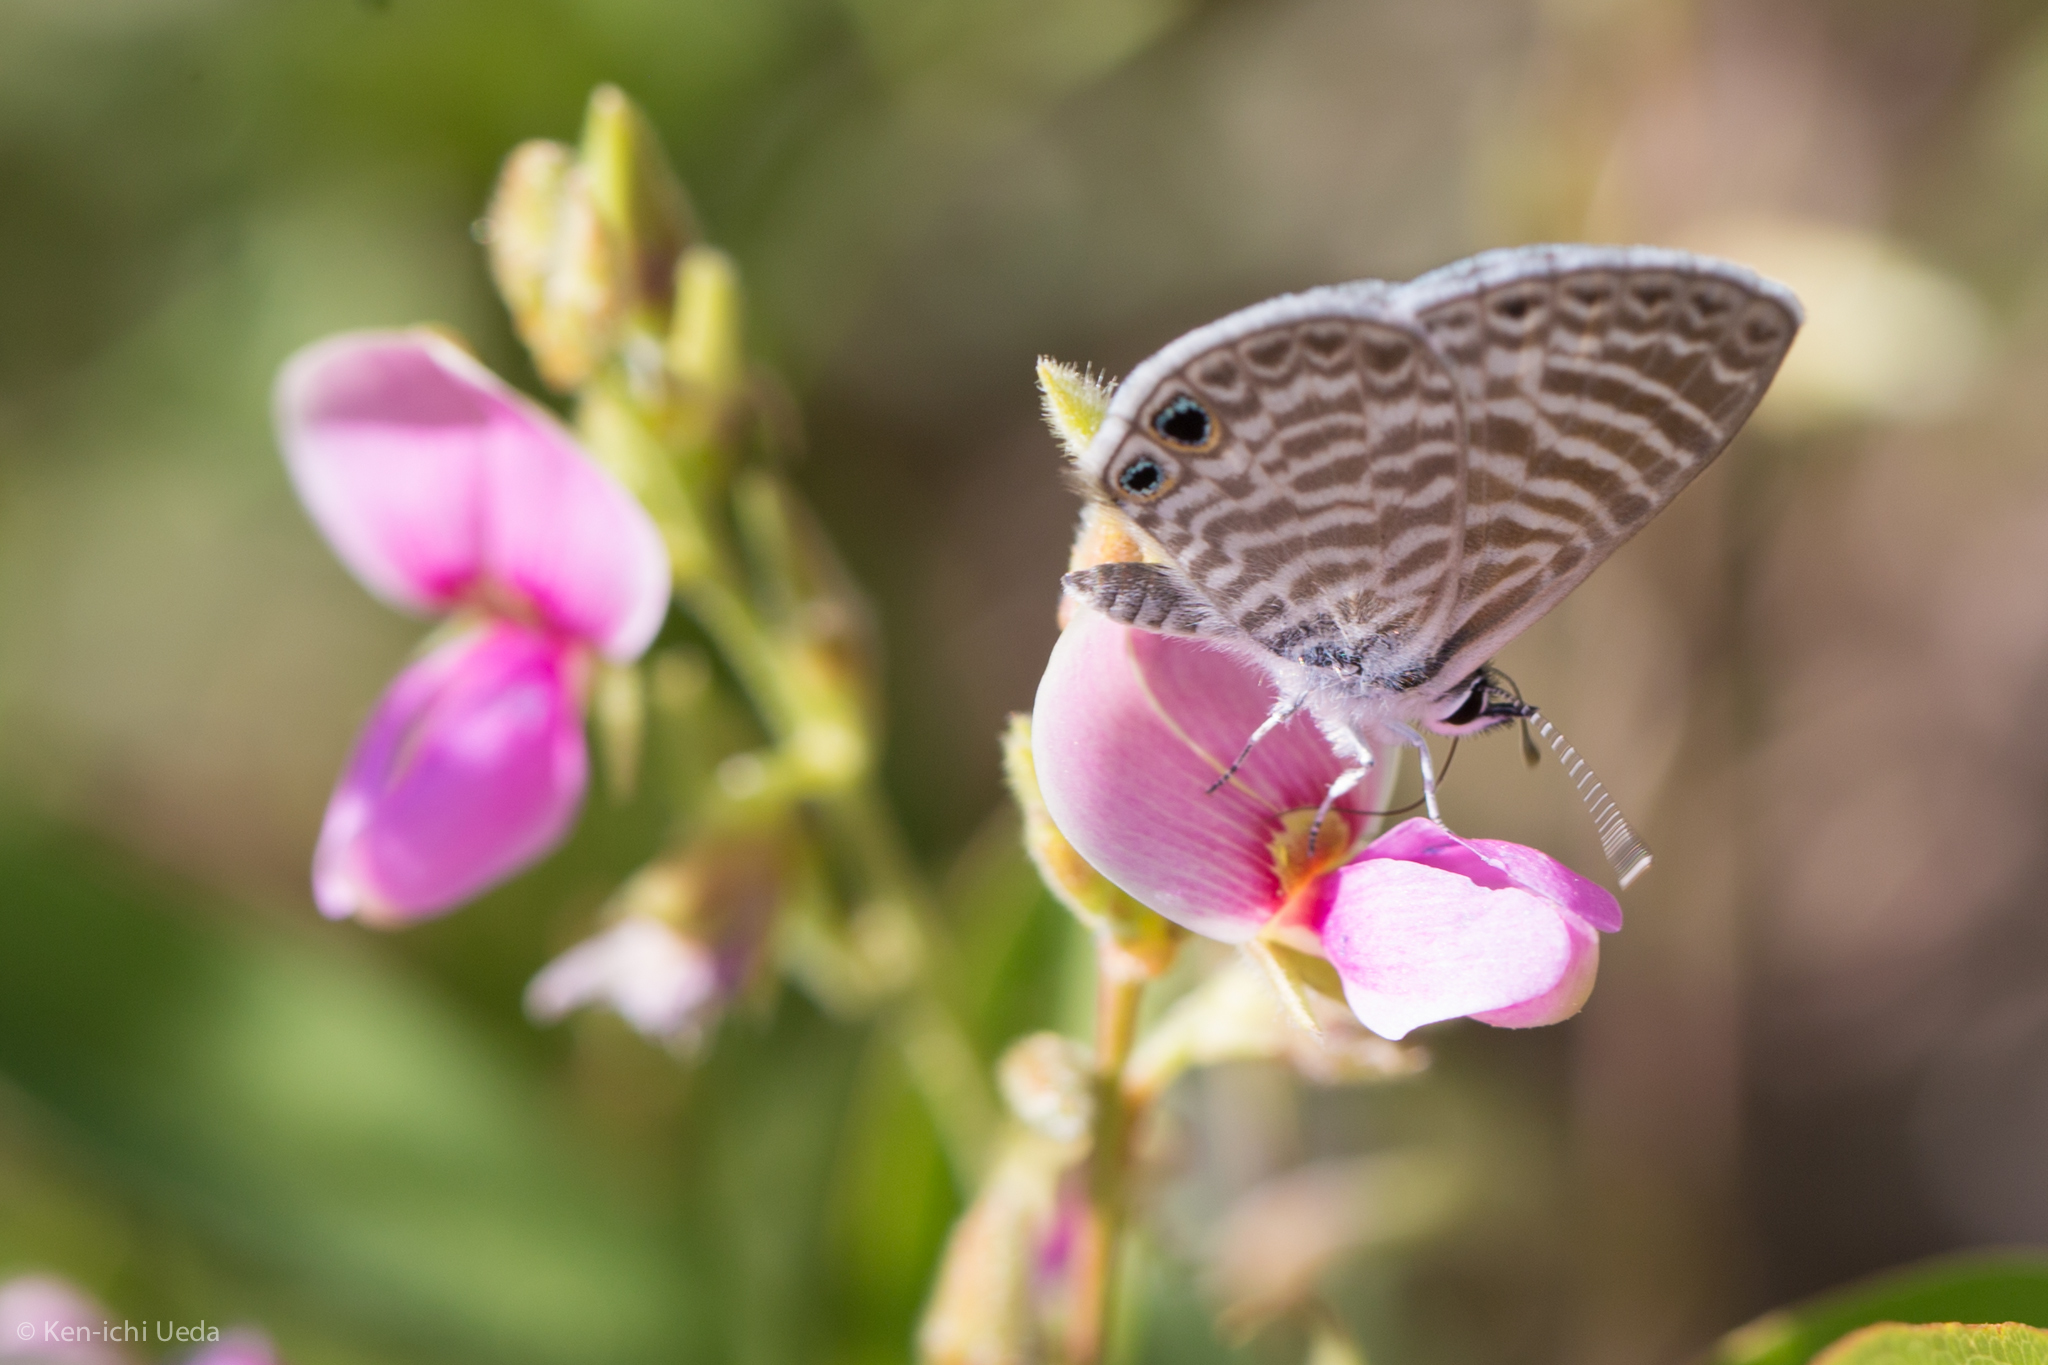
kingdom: Animalia
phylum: Arthropoda
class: Insecta
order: Lepidoptera
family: Lycaenidae
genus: Leptotes
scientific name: Leptotes marina
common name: Marine blue
